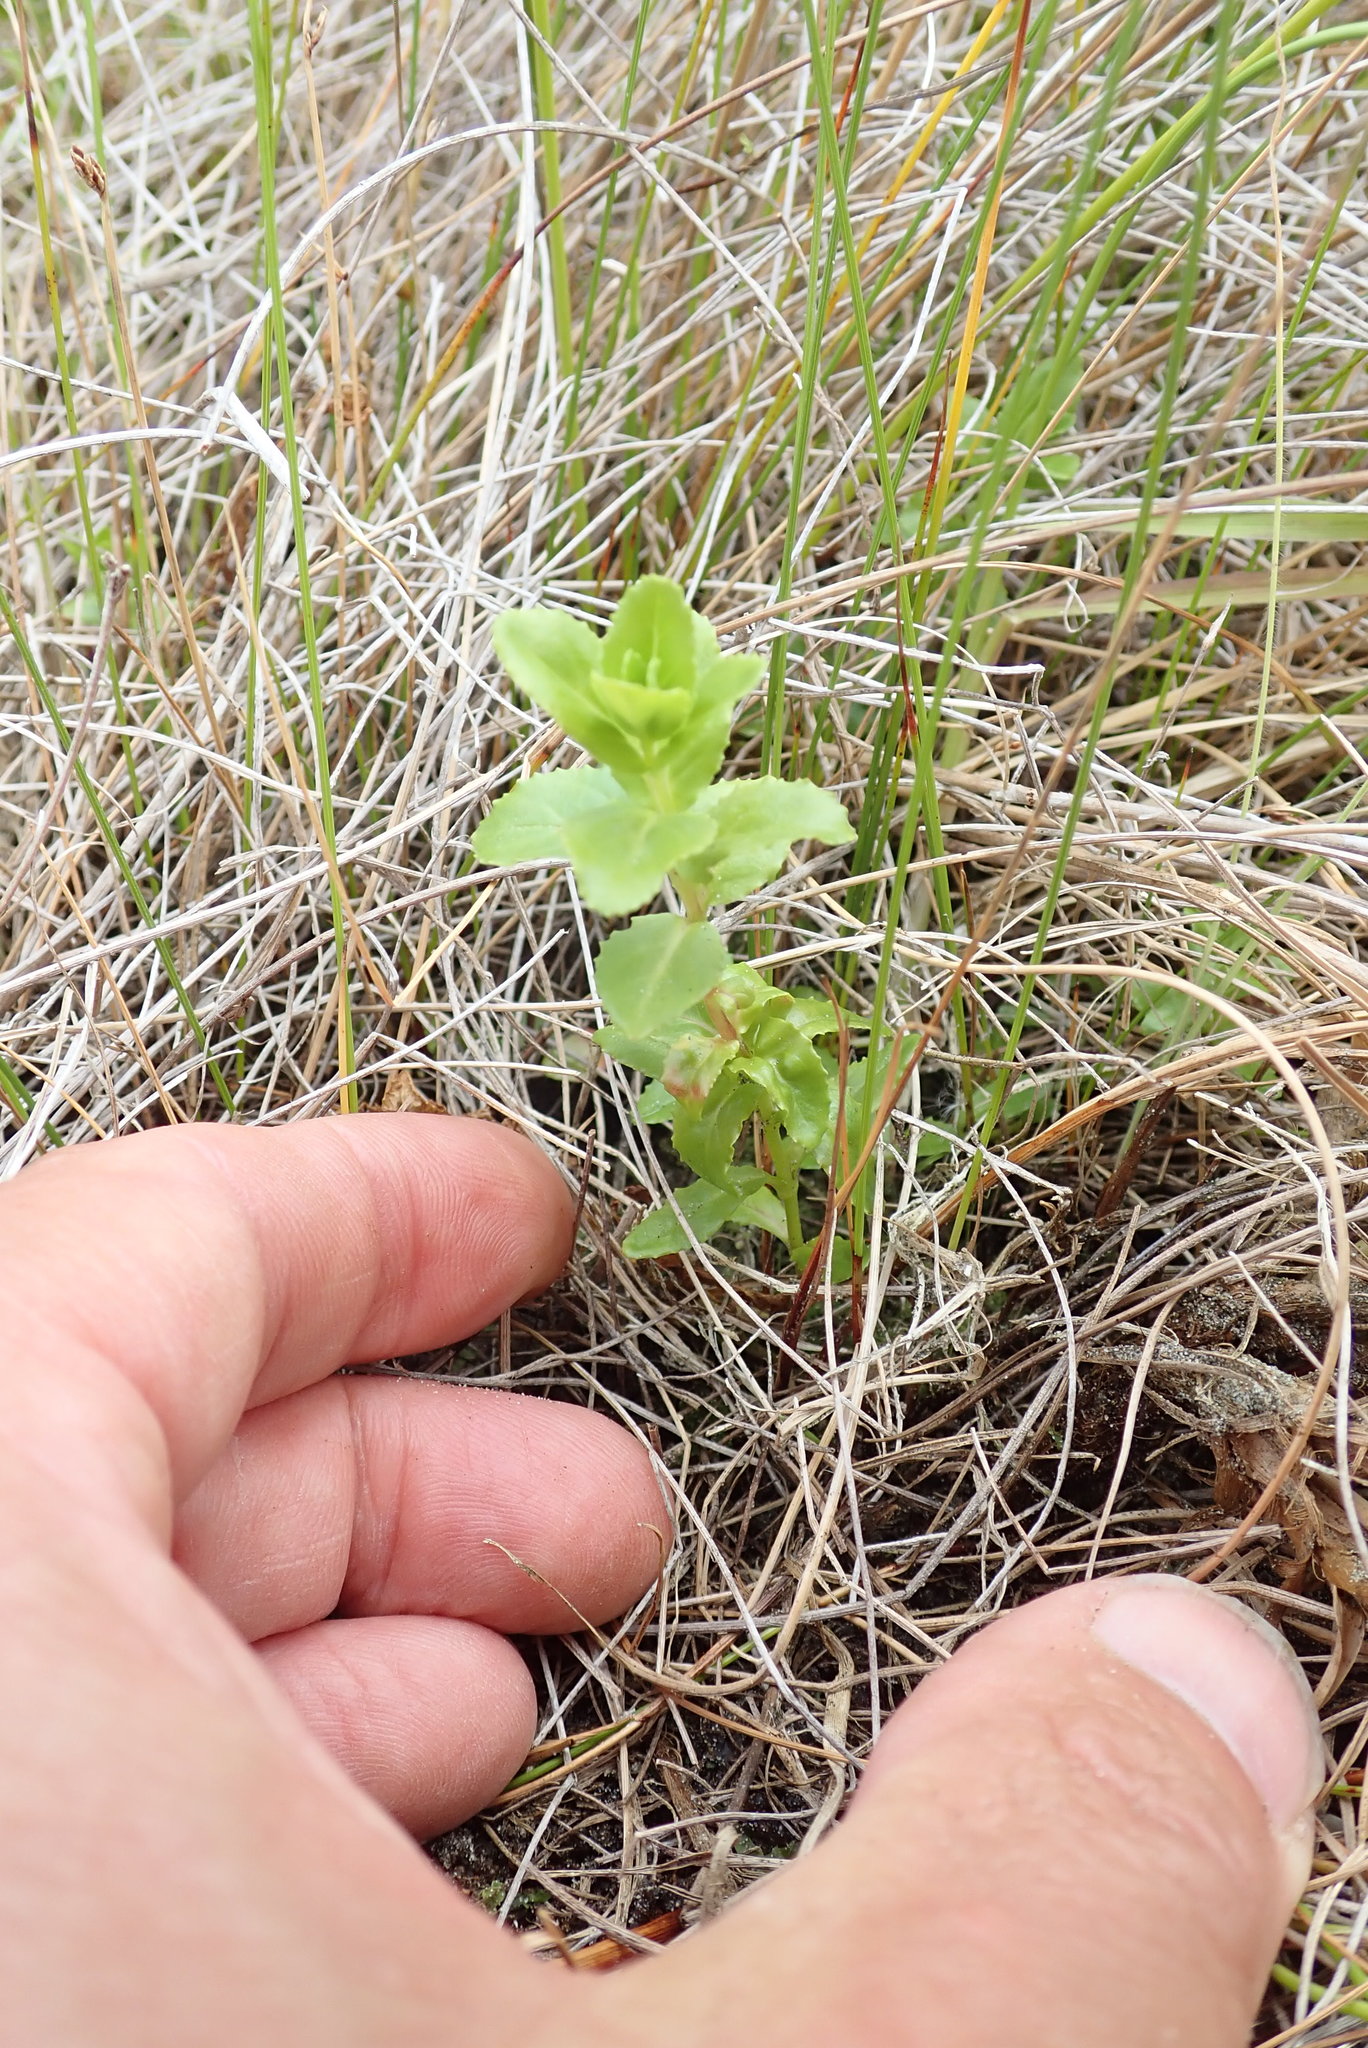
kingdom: Plantae
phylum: Tracheophyta
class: Magnoliopsida
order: Myrtales
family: Onagraceae
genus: Epilobium
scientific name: Epilobium billardiereanum
